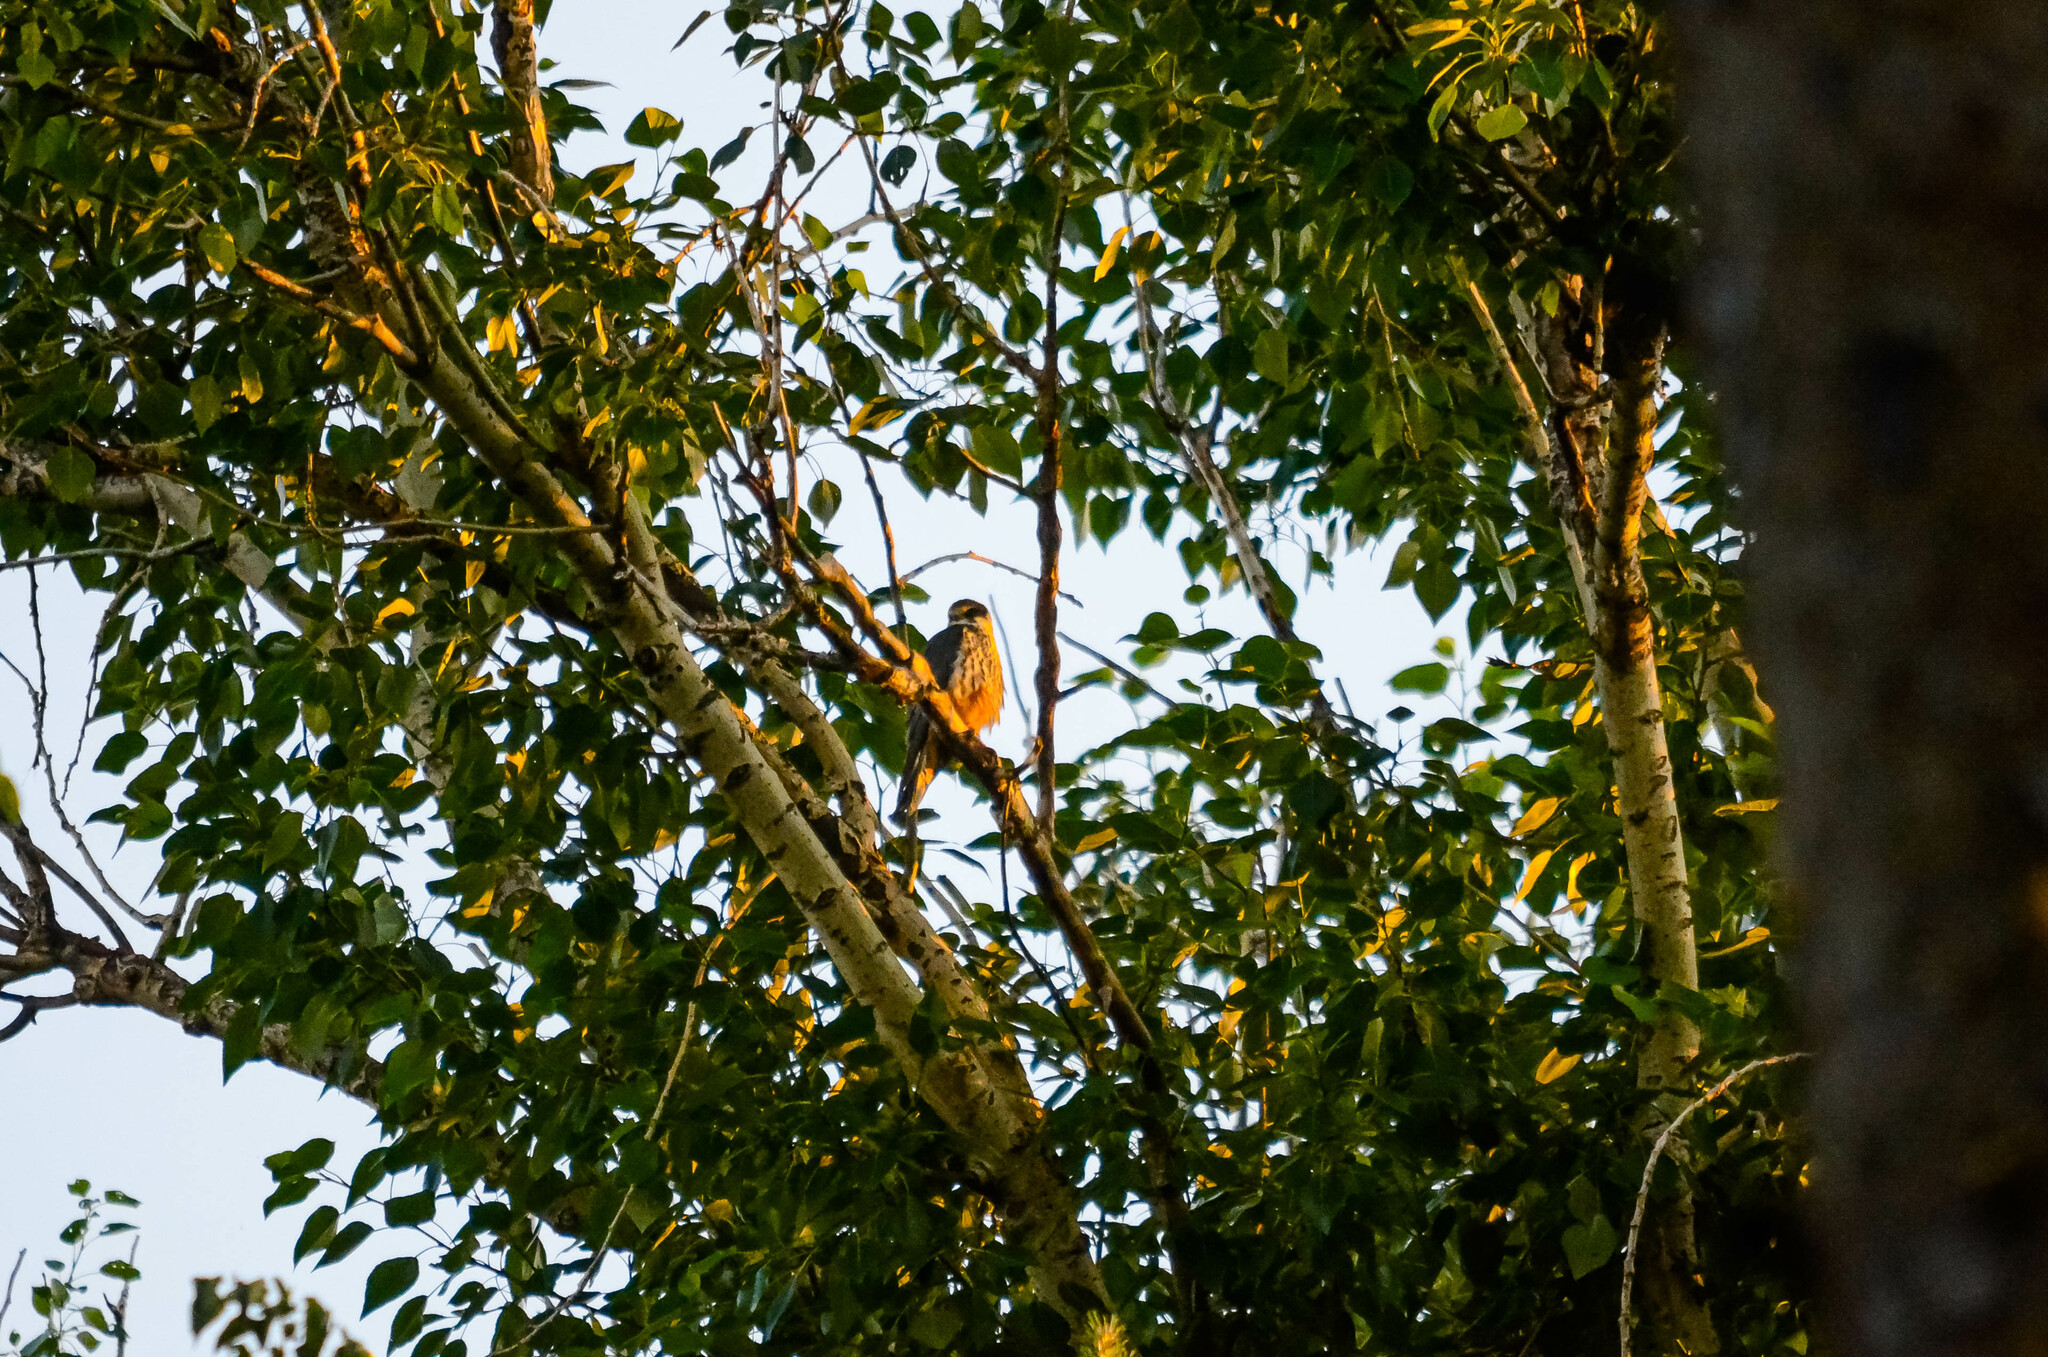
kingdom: Animalia
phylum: Chordata
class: Aves
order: Falconiformes
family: Falconidae
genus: Falco
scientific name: Falco subbuteo
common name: Eurasian hobby
